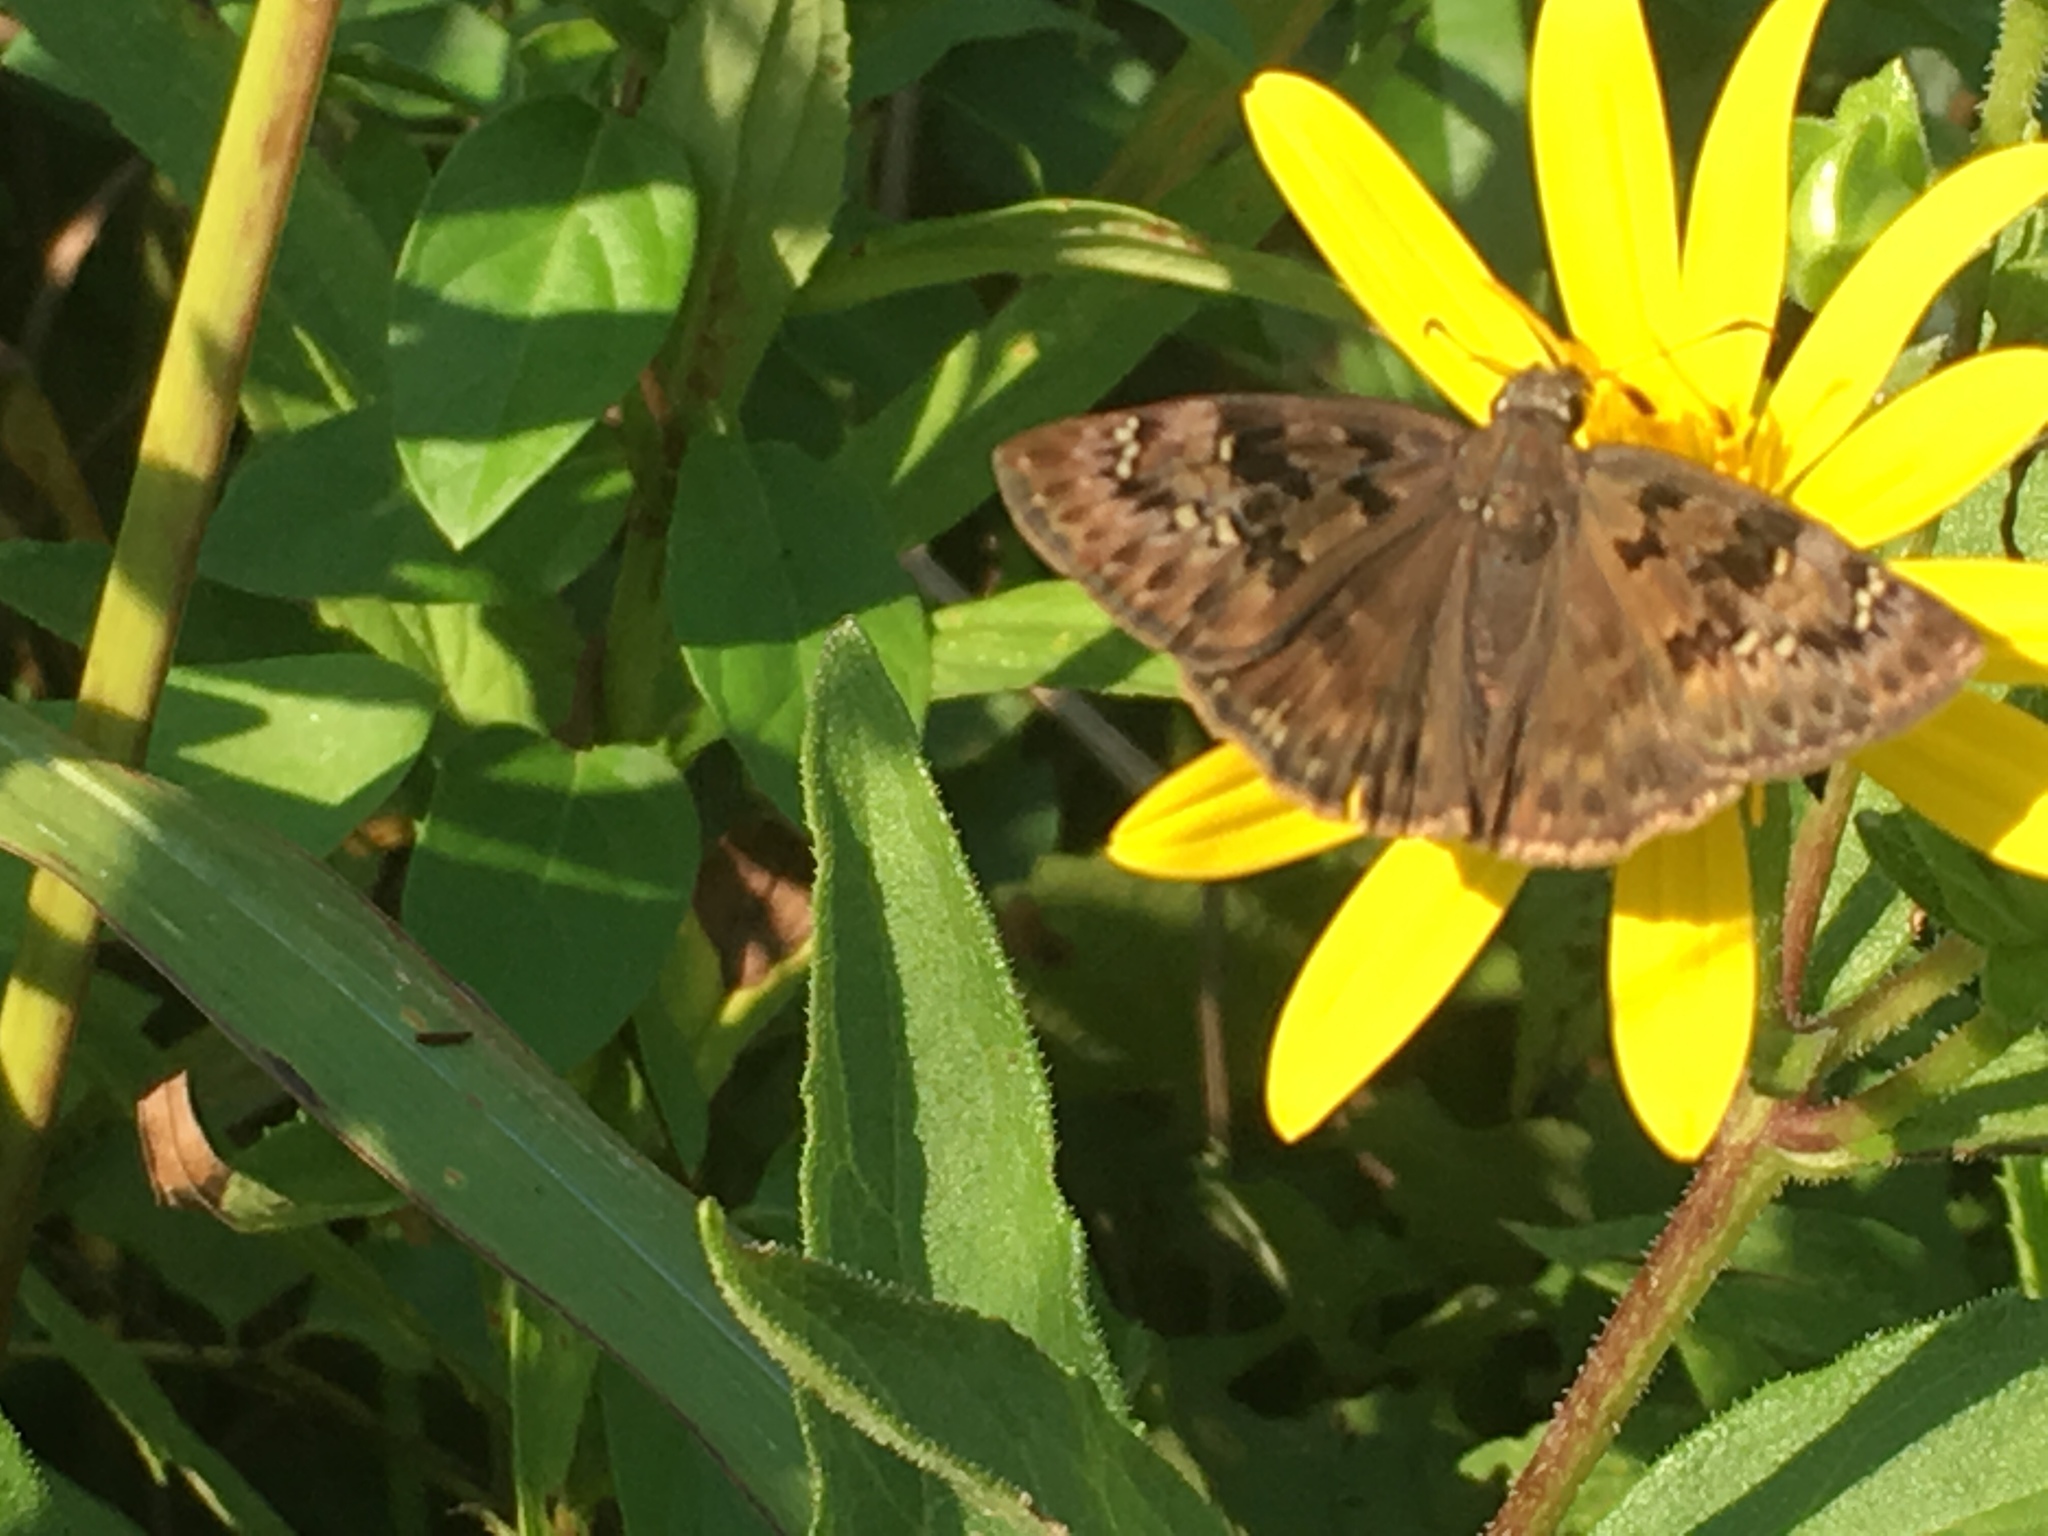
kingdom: Animalia
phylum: Arthropoda
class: Insecta
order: Lepidoptera
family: Hesperiidae
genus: Erynnis
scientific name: Erynnis horatius
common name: Horace's duskywing
